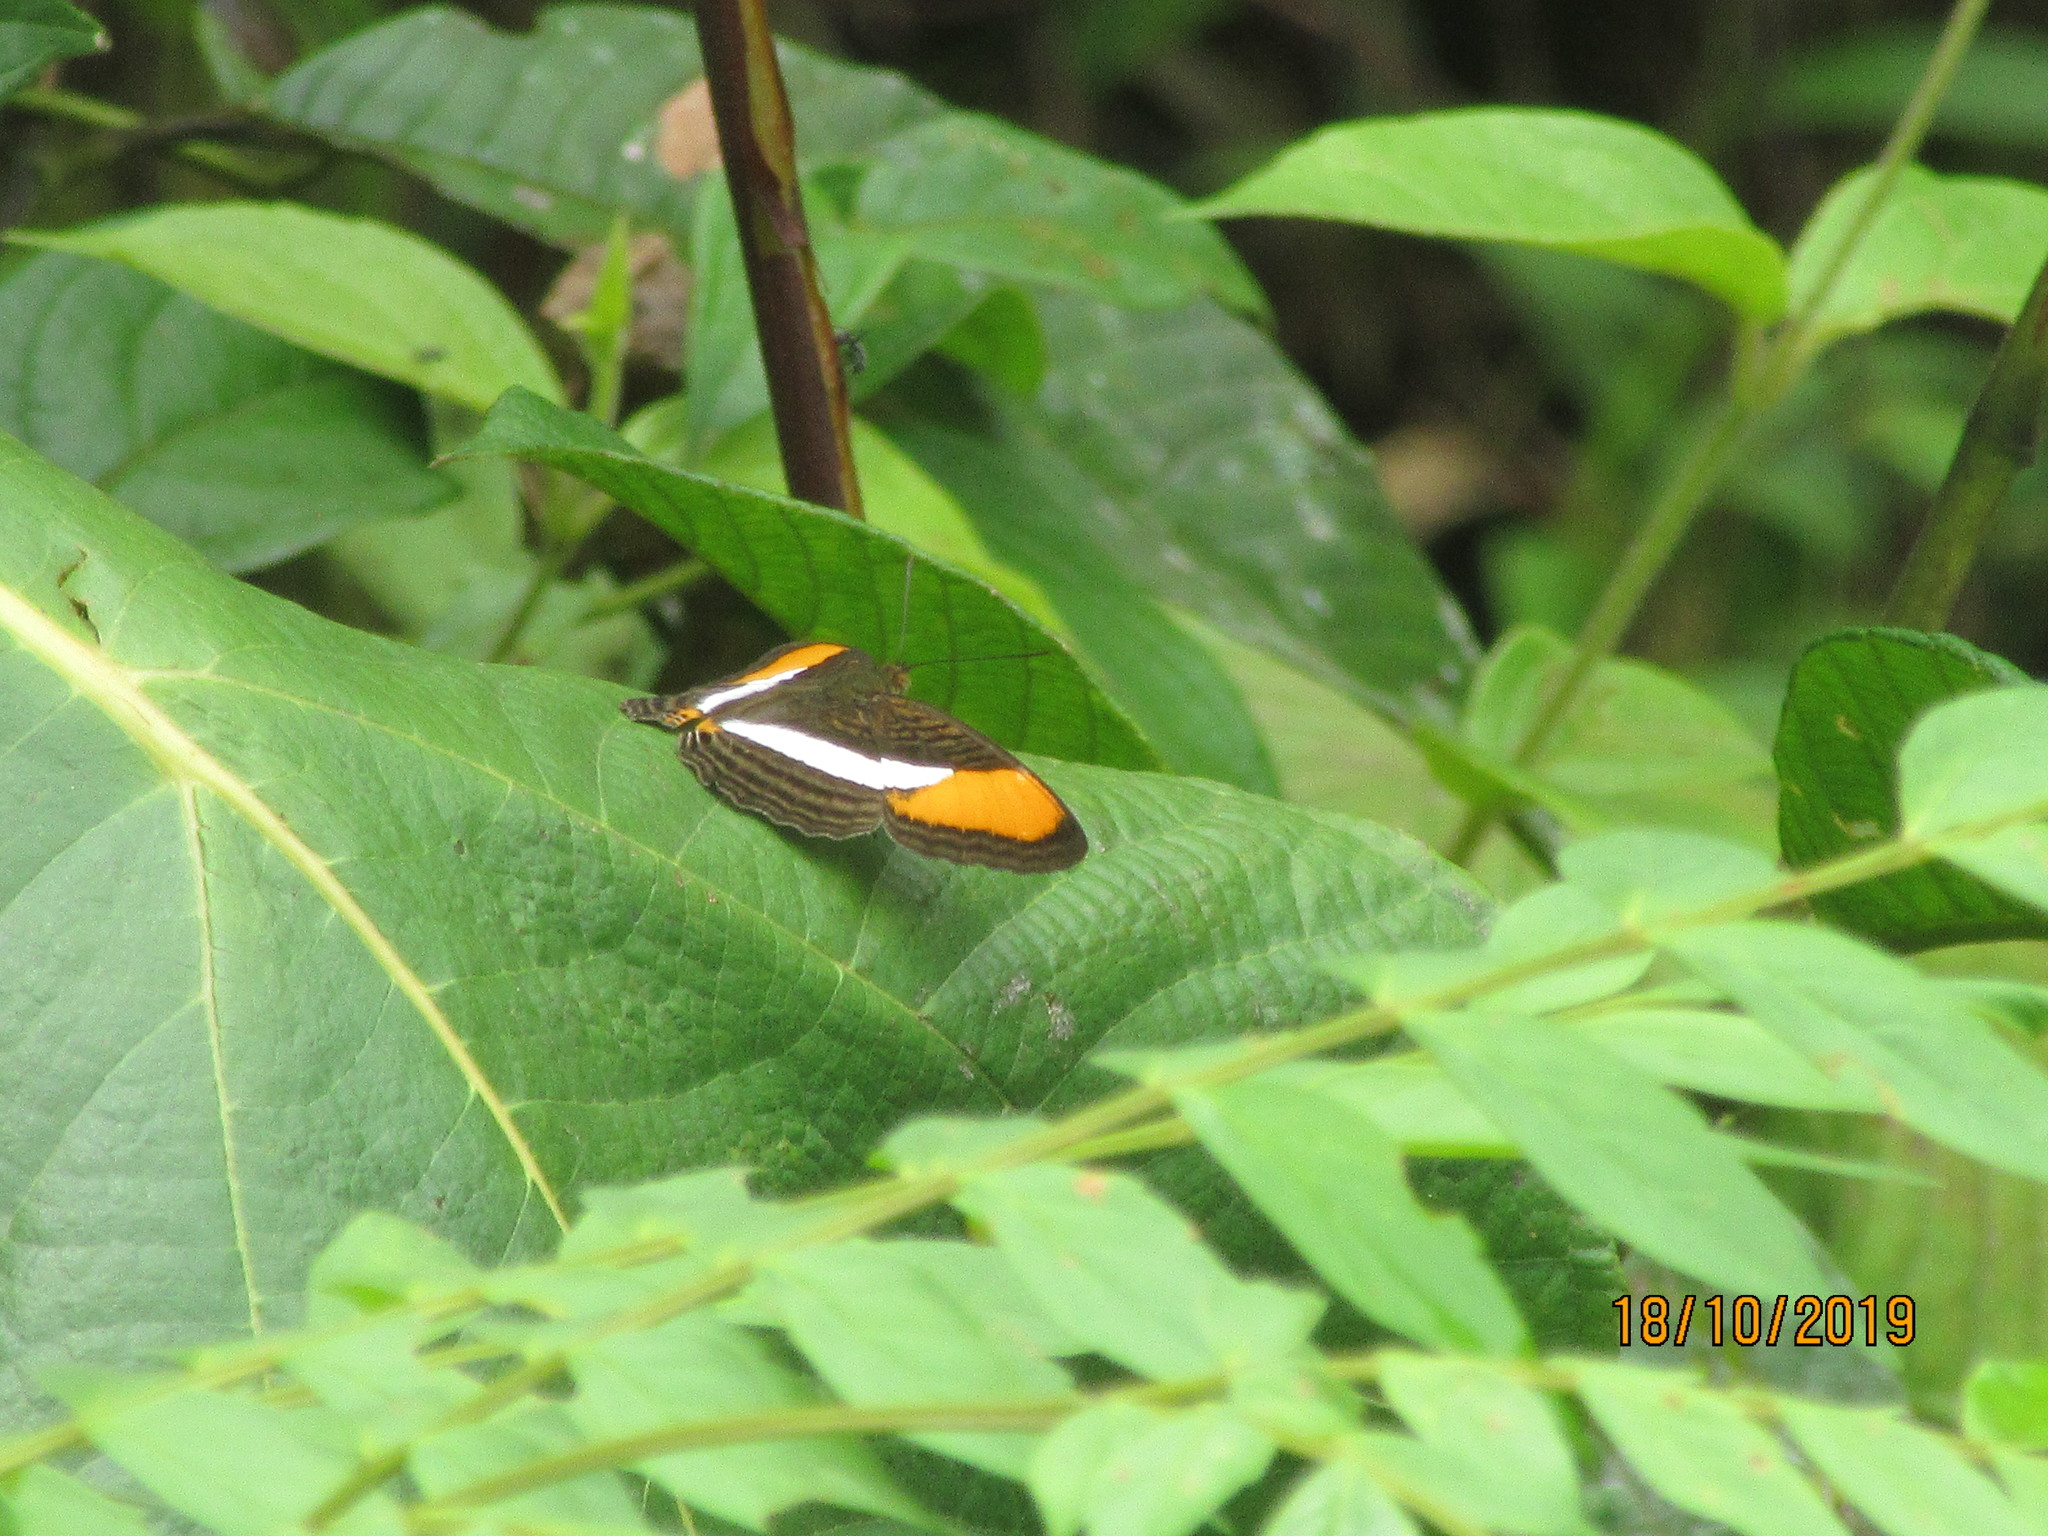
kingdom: Animalia
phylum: Arthropoda
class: Insecta
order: Lepidoptera
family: Nymphalidae
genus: Limenitis
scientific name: Limenitis cytherea
